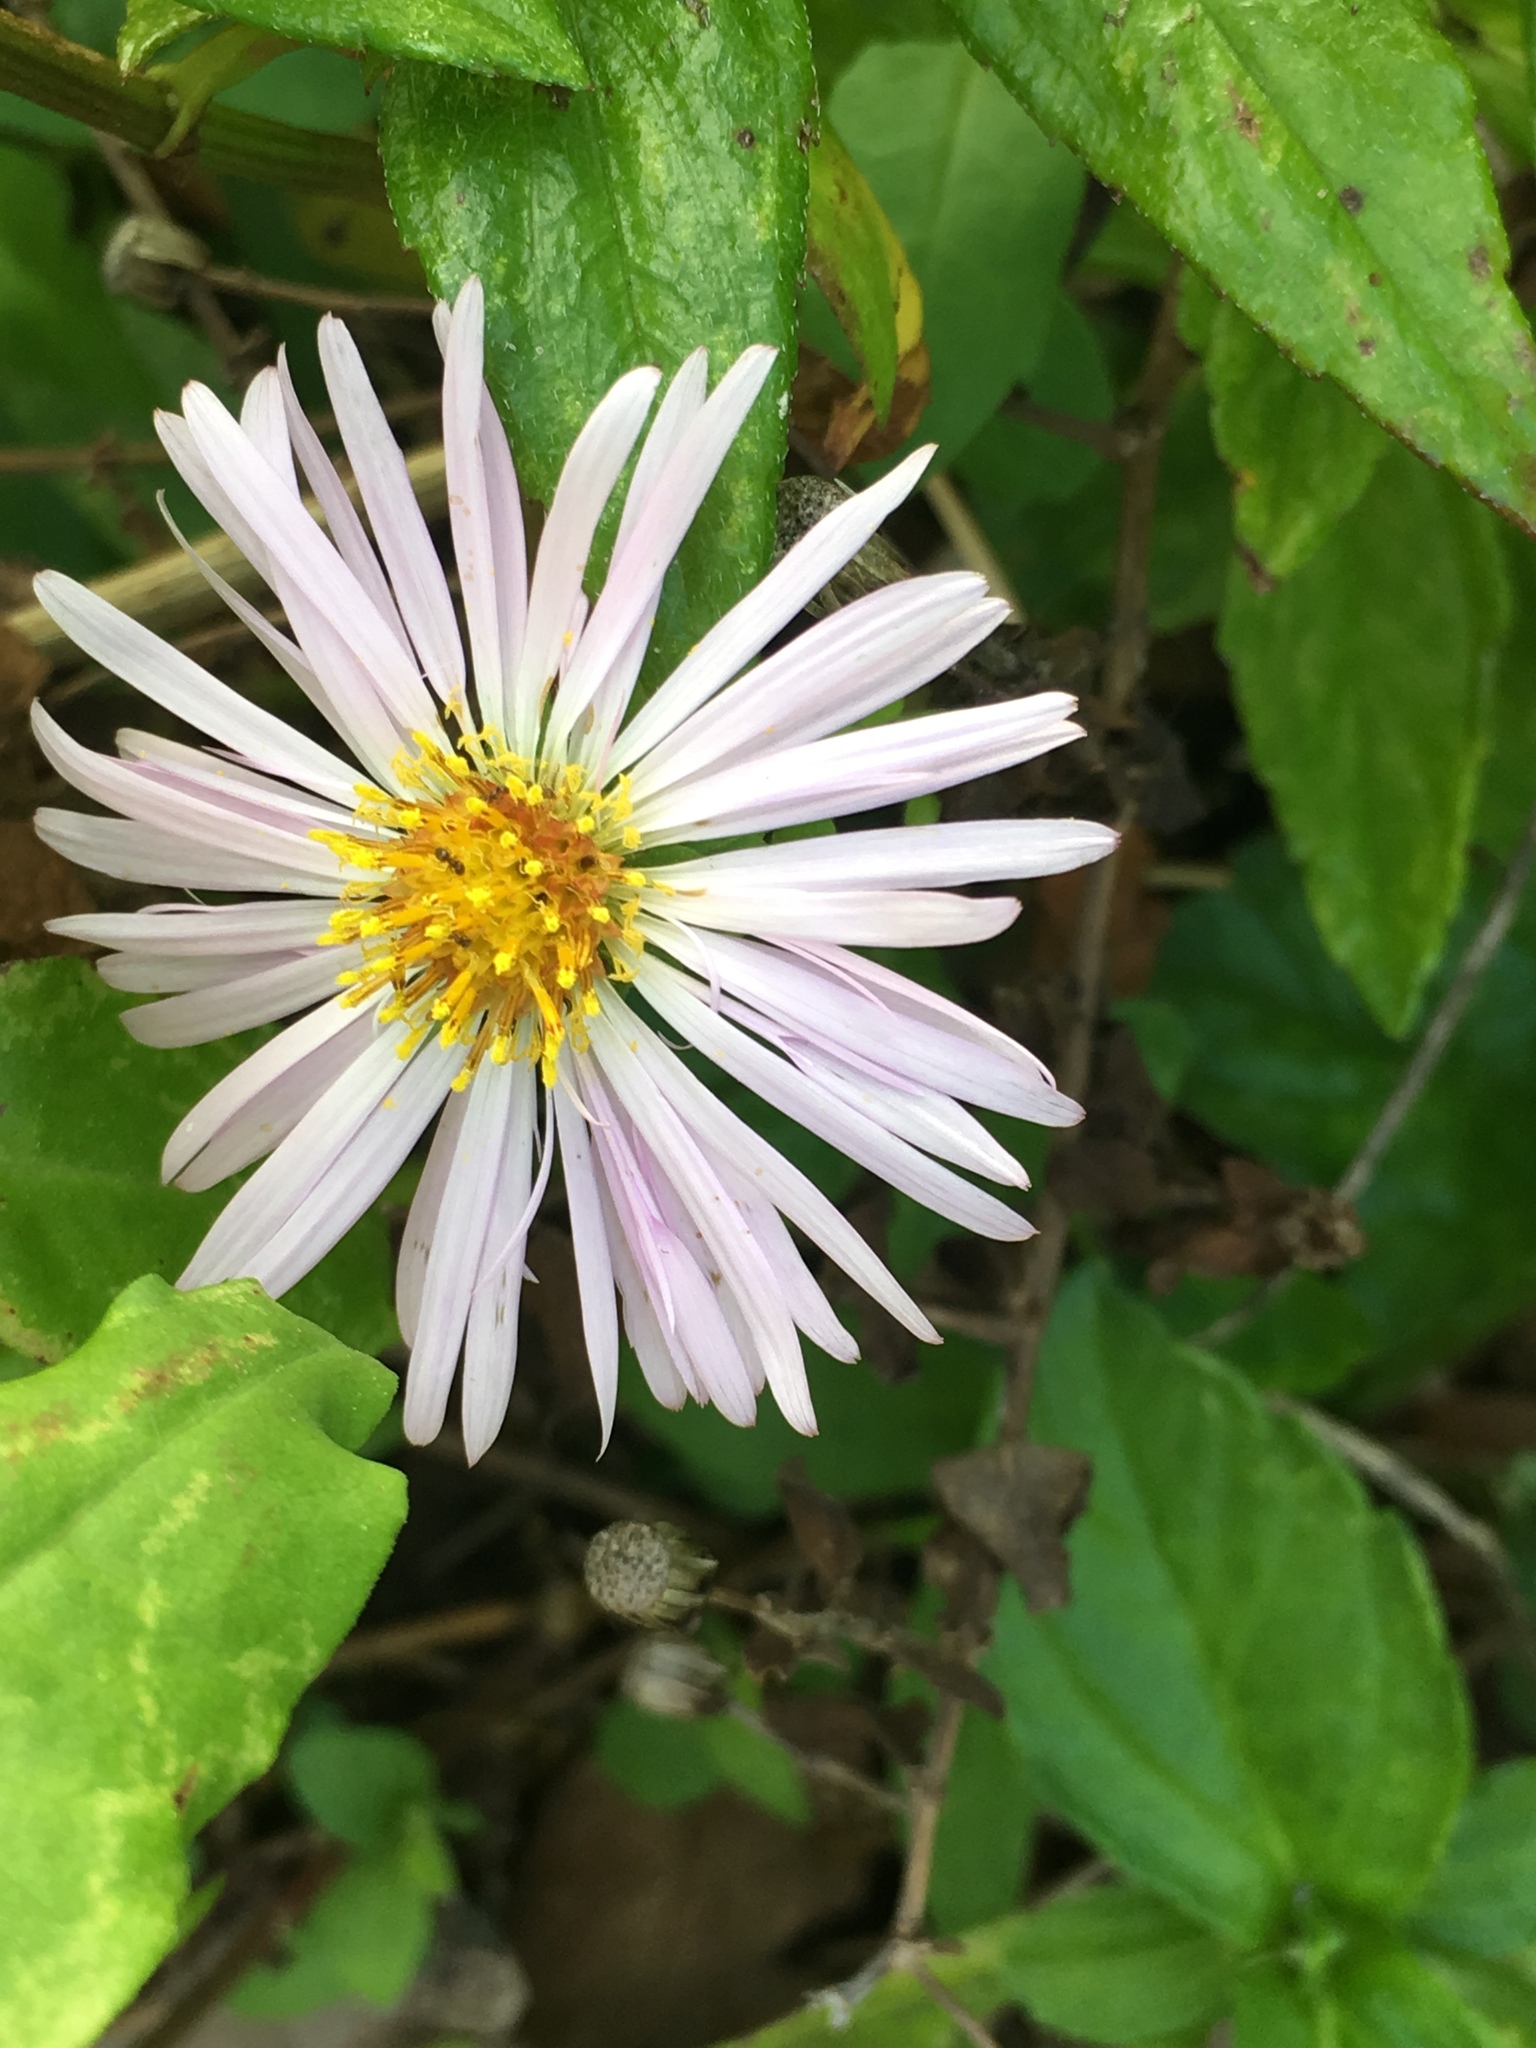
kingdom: Plantae
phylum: Tracheophyta
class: Magnoliopsida
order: Asterales
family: Asteraceae
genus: Ampelaster
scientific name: Ampelaster carolinianus
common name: Climbing aster
